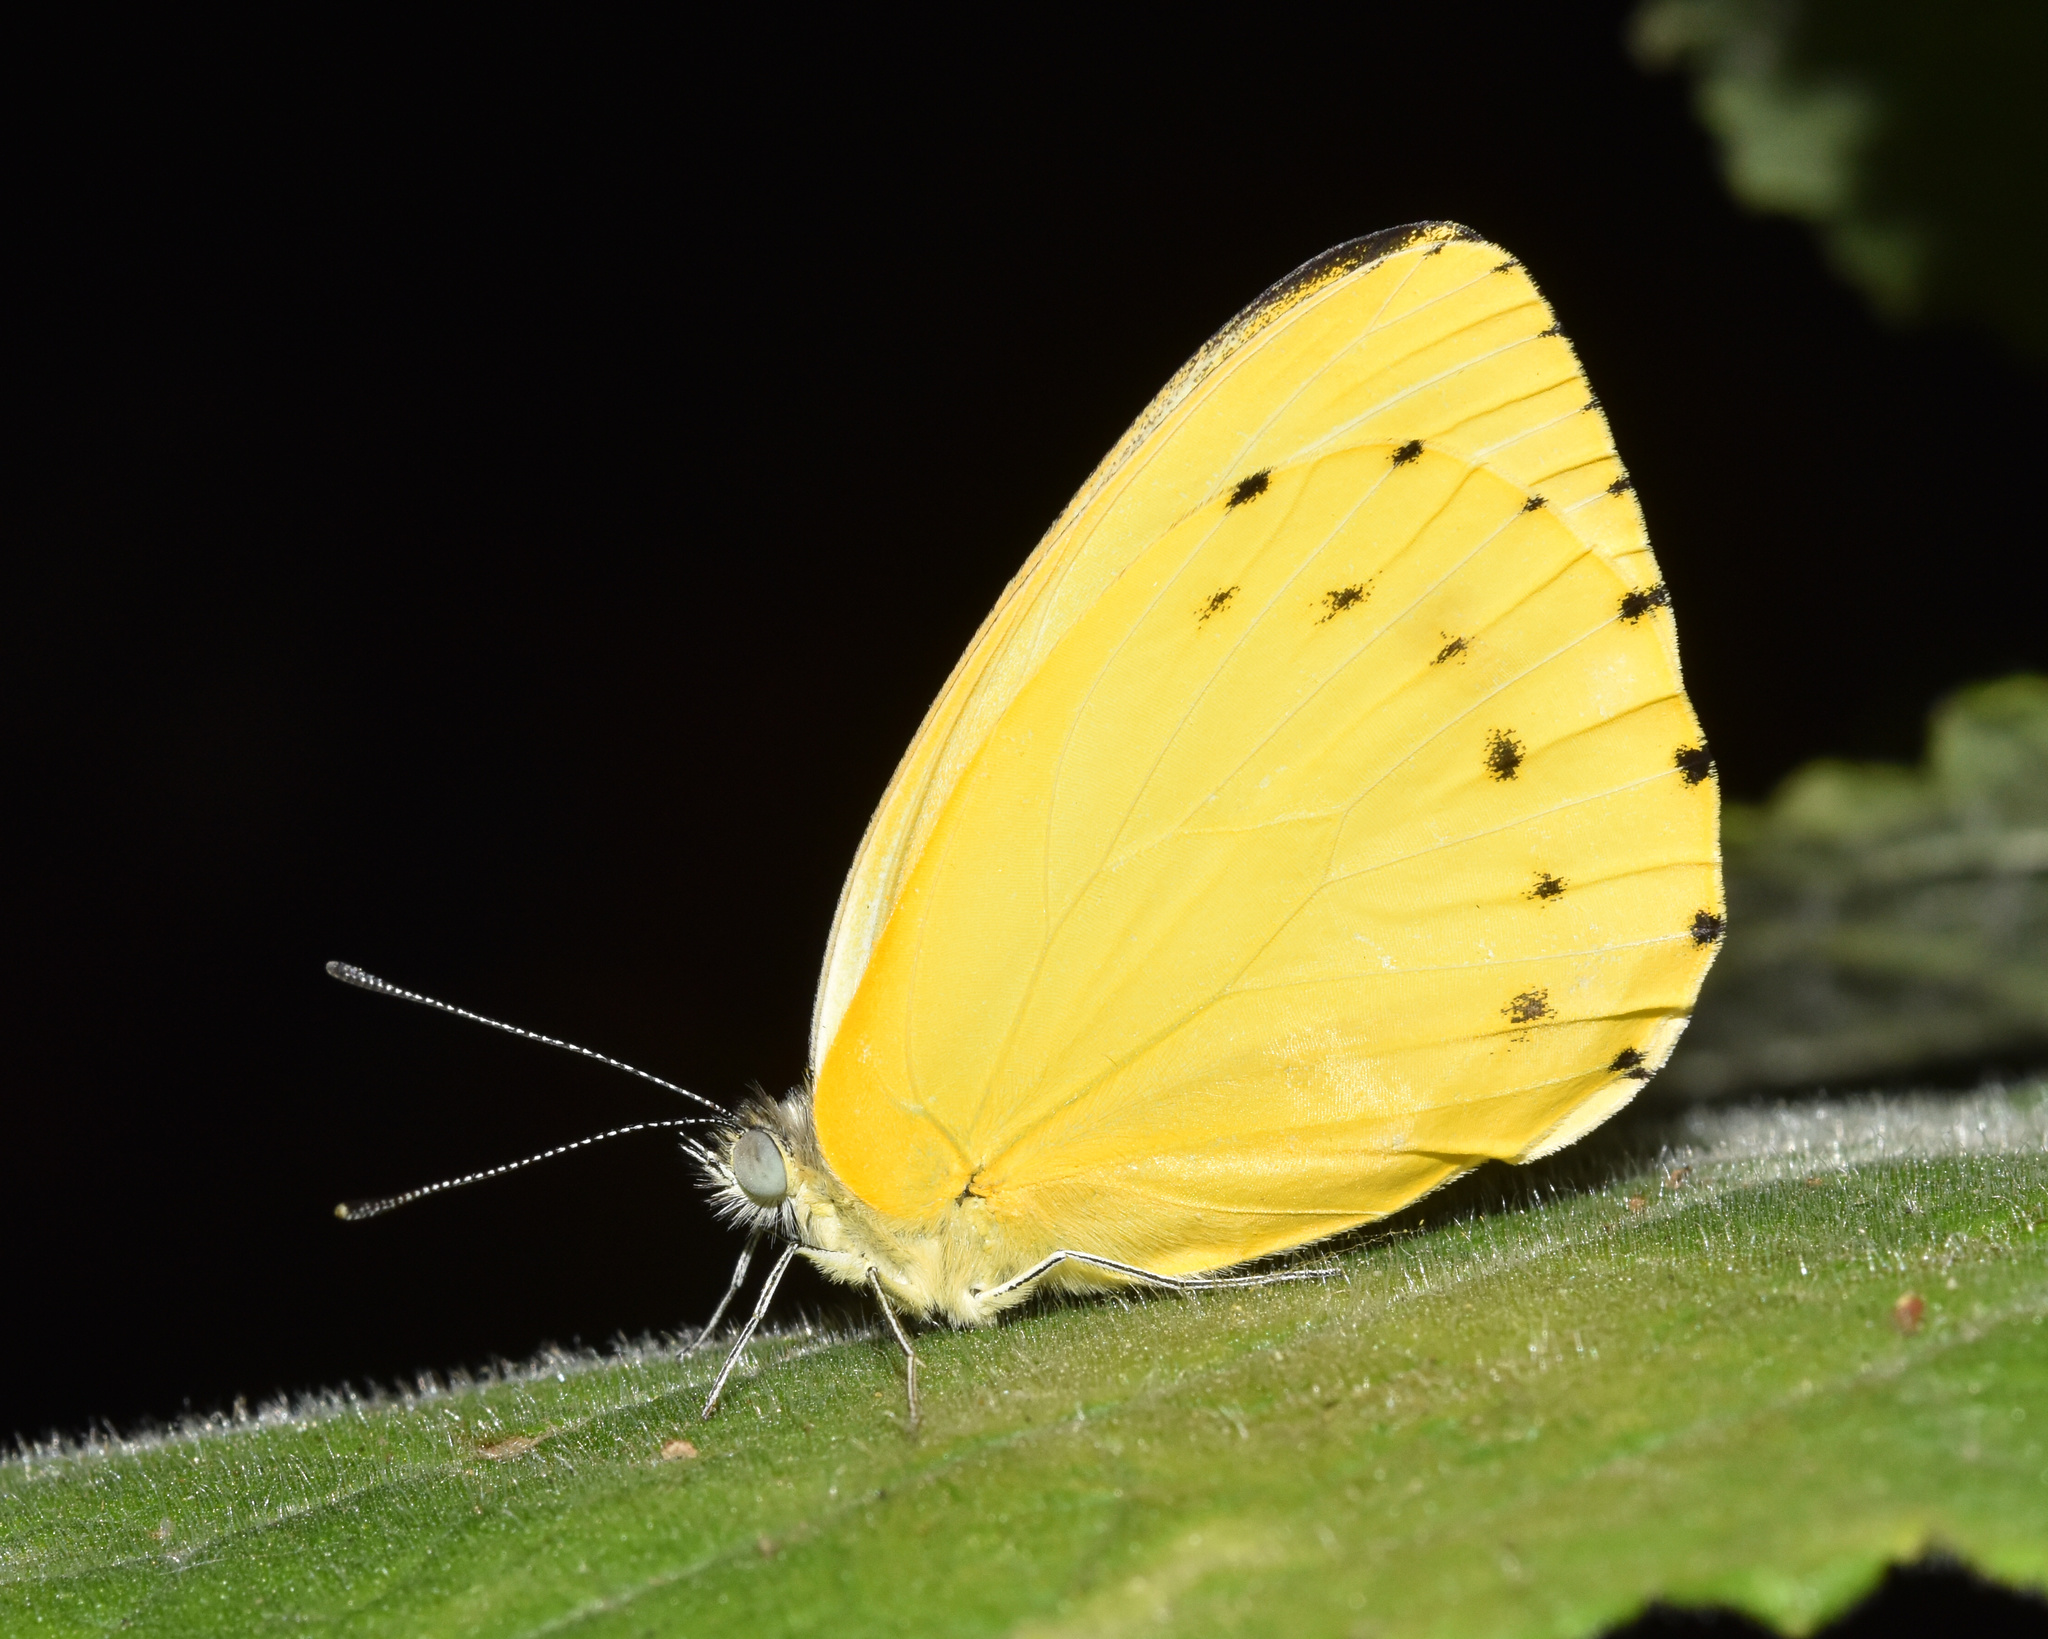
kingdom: Animalia
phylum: Arthropoda
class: Insecta
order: Lepidoptera
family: Pieridae
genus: Dixeia
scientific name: Dixeia pigea
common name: Ant-heap small white
